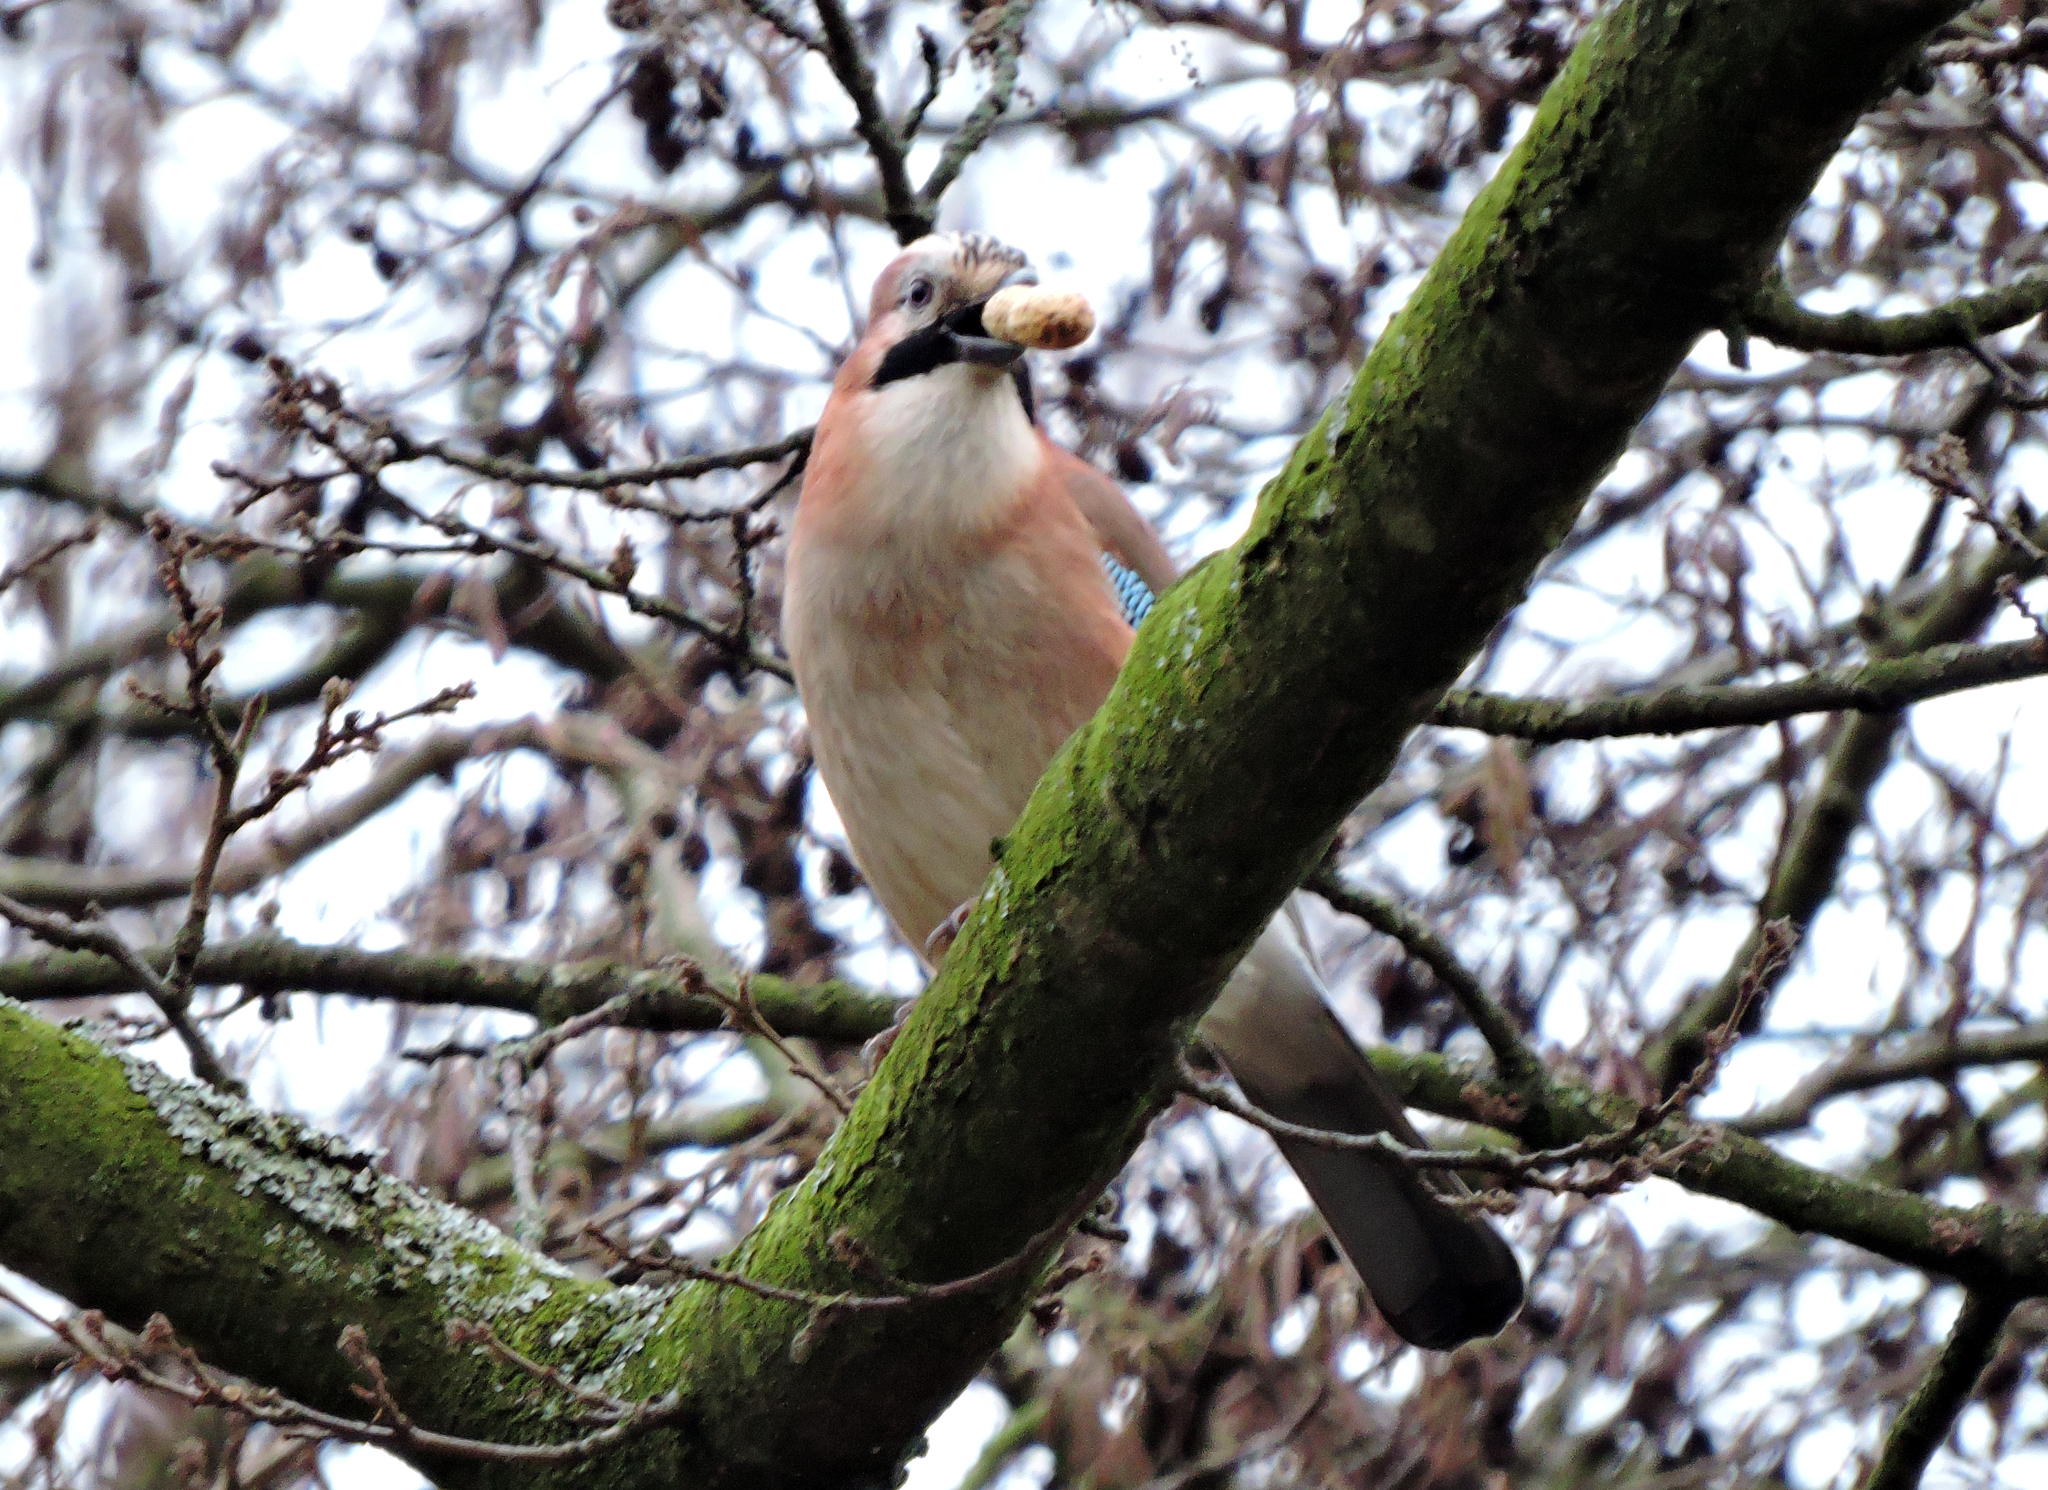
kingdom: Animalia
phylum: Chordata
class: Aves
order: Passeriformes
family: Corvidae
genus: Garrulus
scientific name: Garrulus glandarius
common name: Eurasian jay
